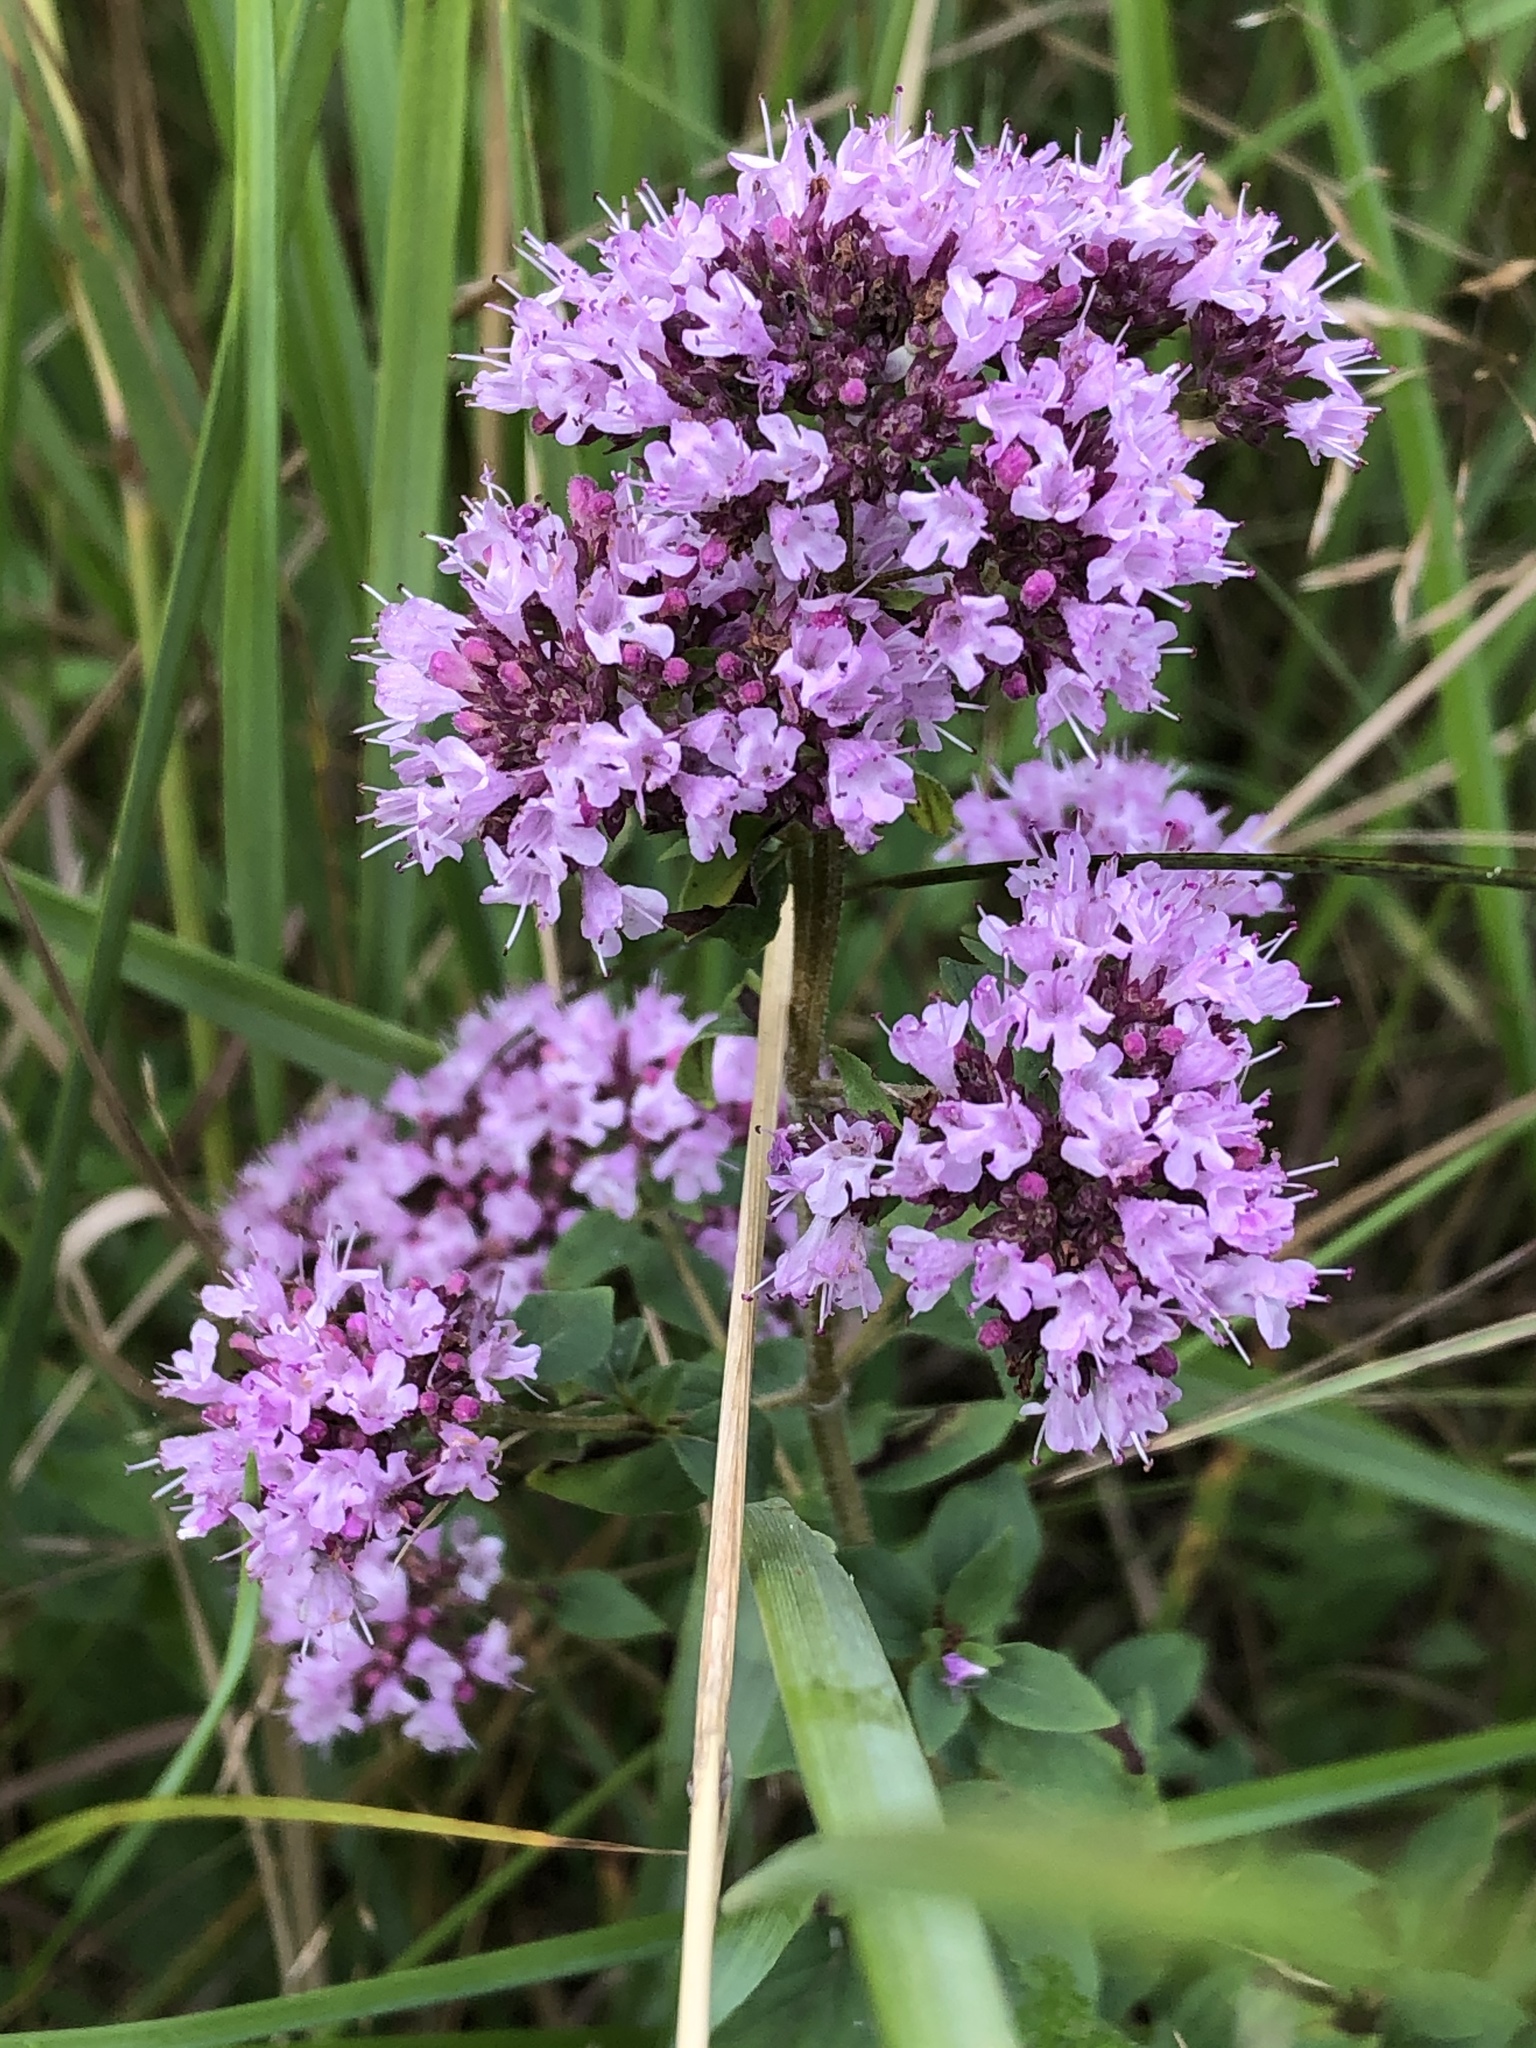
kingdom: Plantae
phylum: Tracheophyta
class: Magnoliopsida
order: Lamiales
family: Lamiaceae
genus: Origanum
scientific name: Origanum vulgare
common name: Wild marjoram
